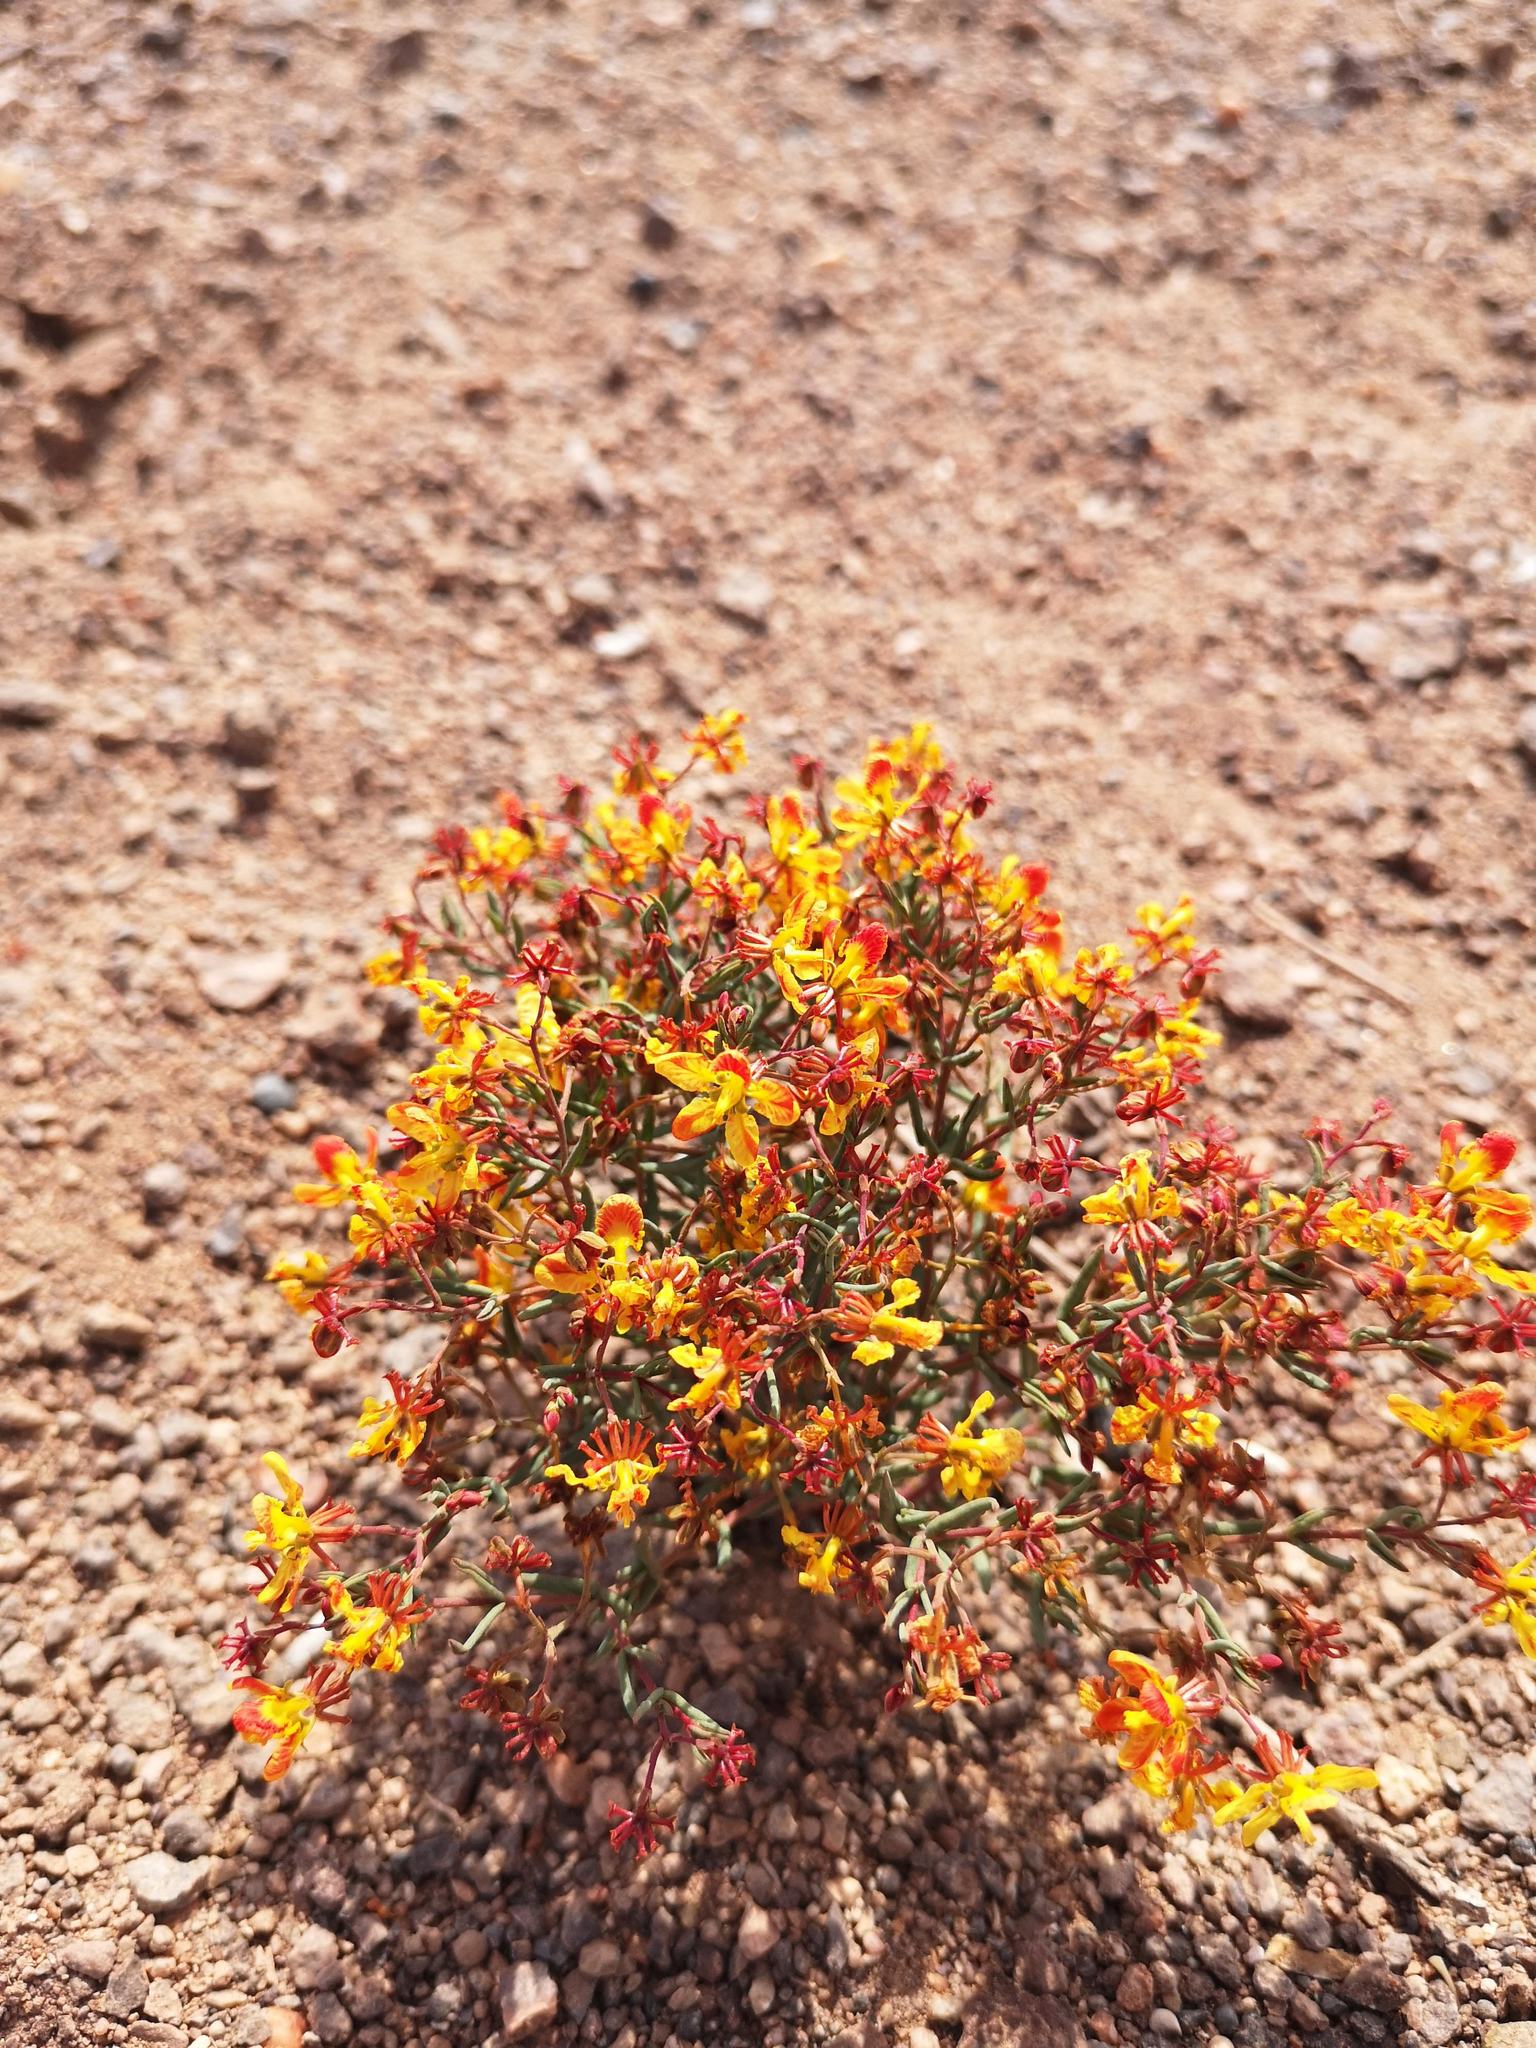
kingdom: Plantae
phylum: Tracheophyta
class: Magnoliopsida
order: Malpighiales
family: Malpighiaceae
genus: Dinemandra
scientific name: Dinemandra ericoides
